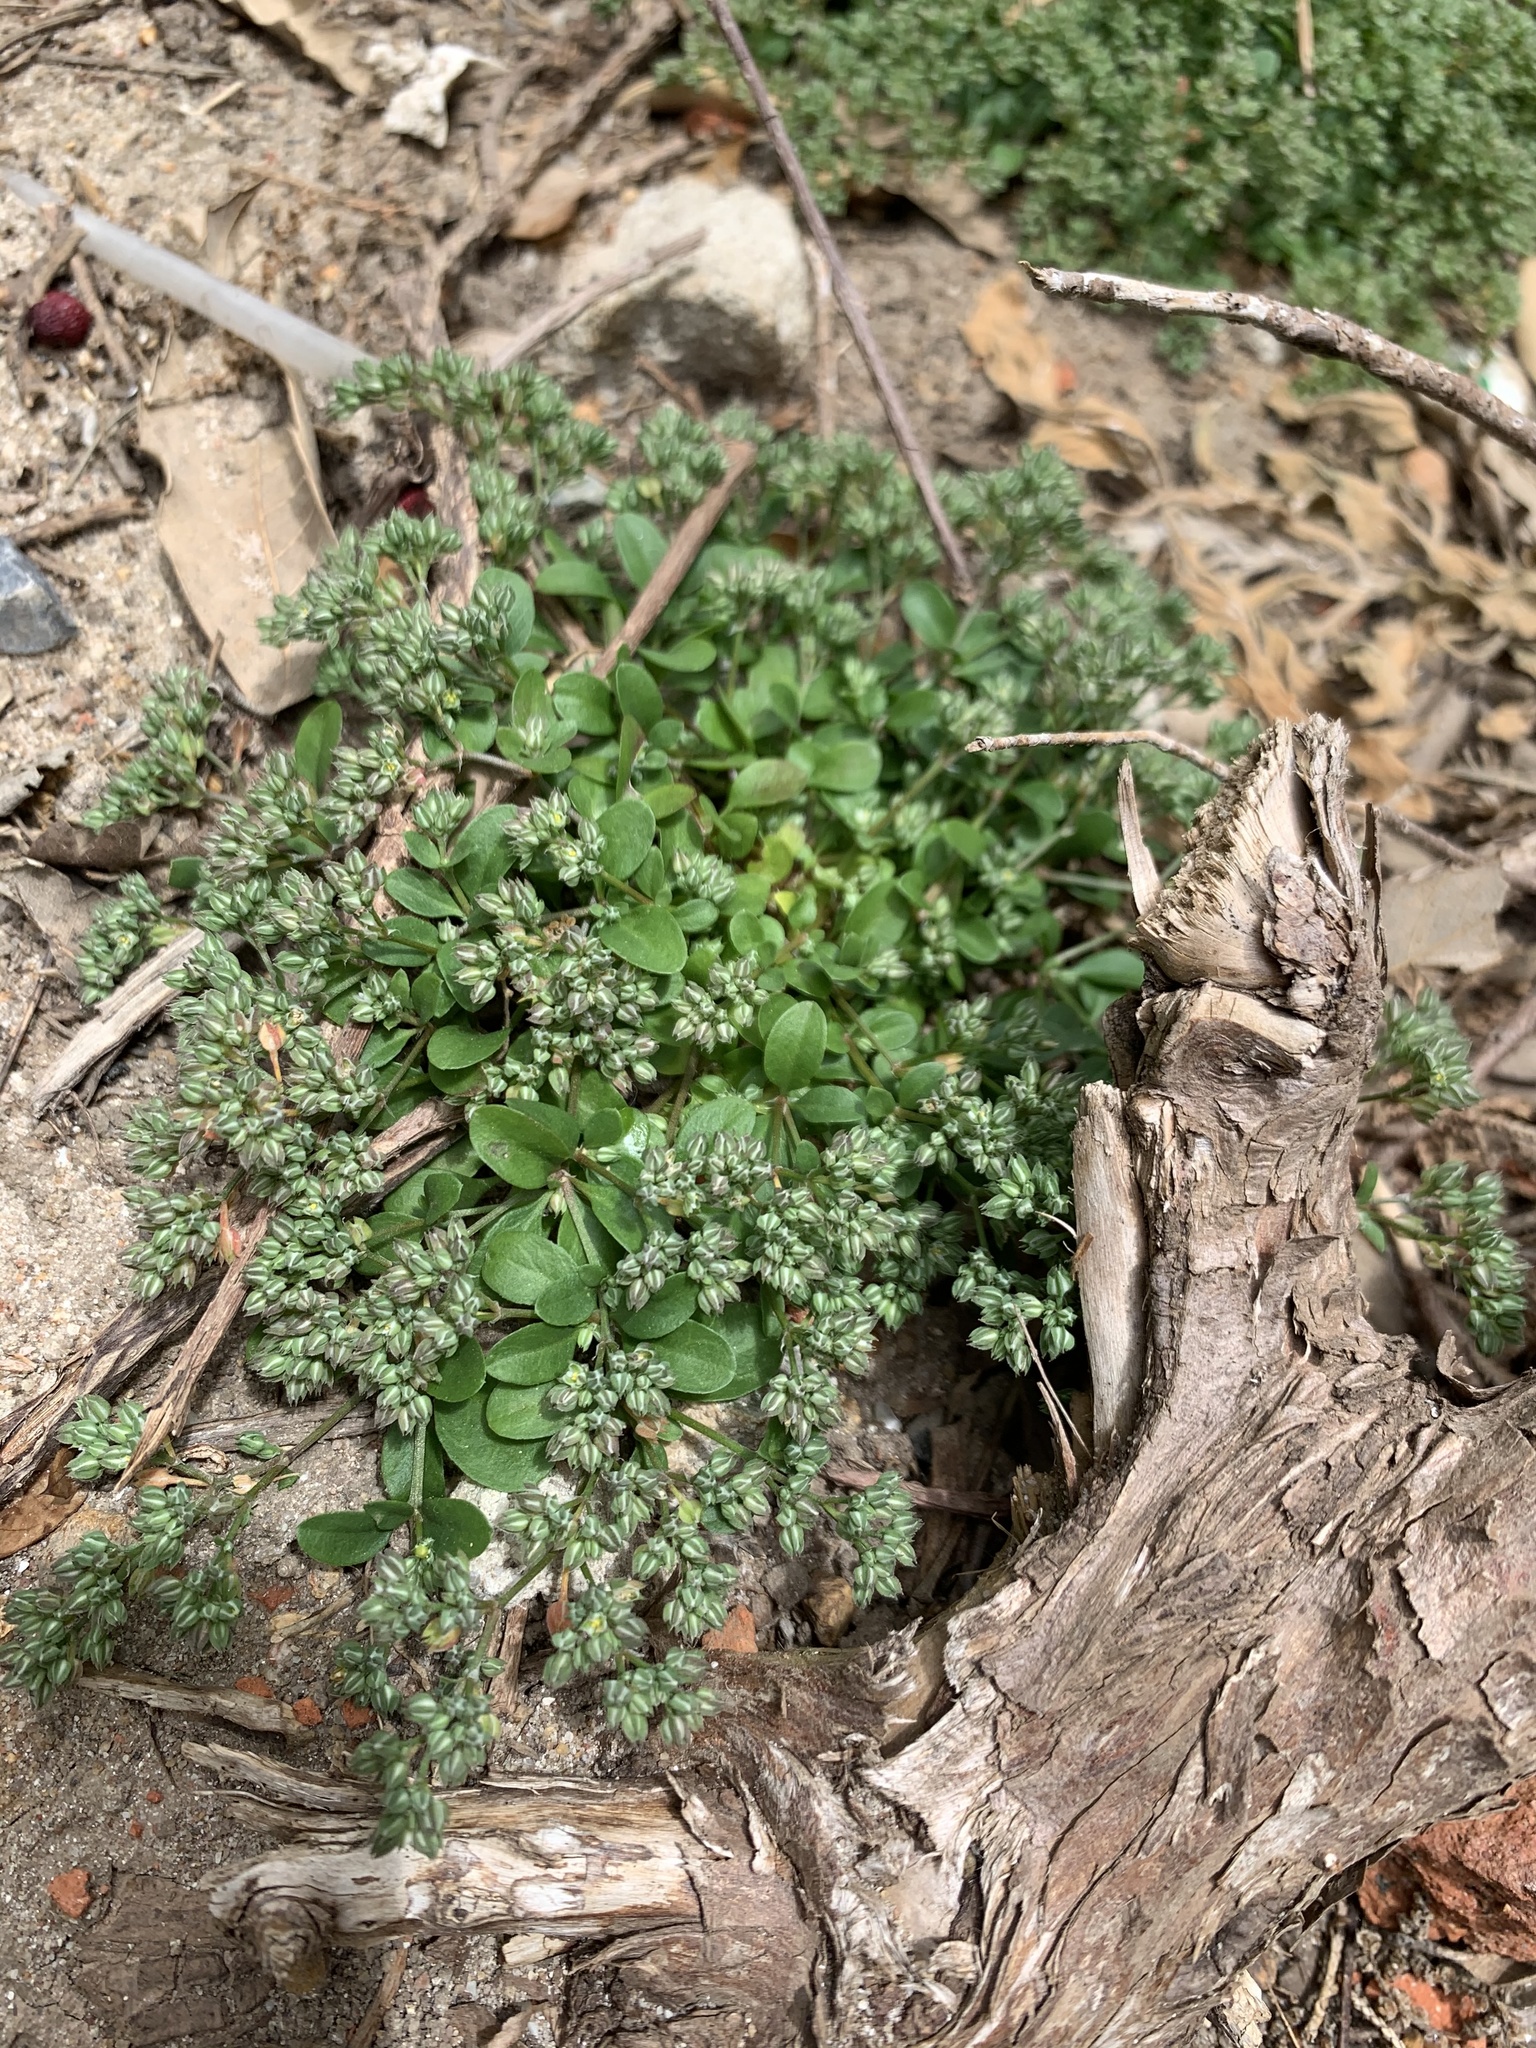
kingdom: Plantae
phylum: Tracheophyta
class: Magnoliopsida
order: Caryophyllales
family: Caryophyllaceae
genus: Polycarpon
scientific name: Polycarpon tetraphyllum
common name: Four-leaved all-seed
